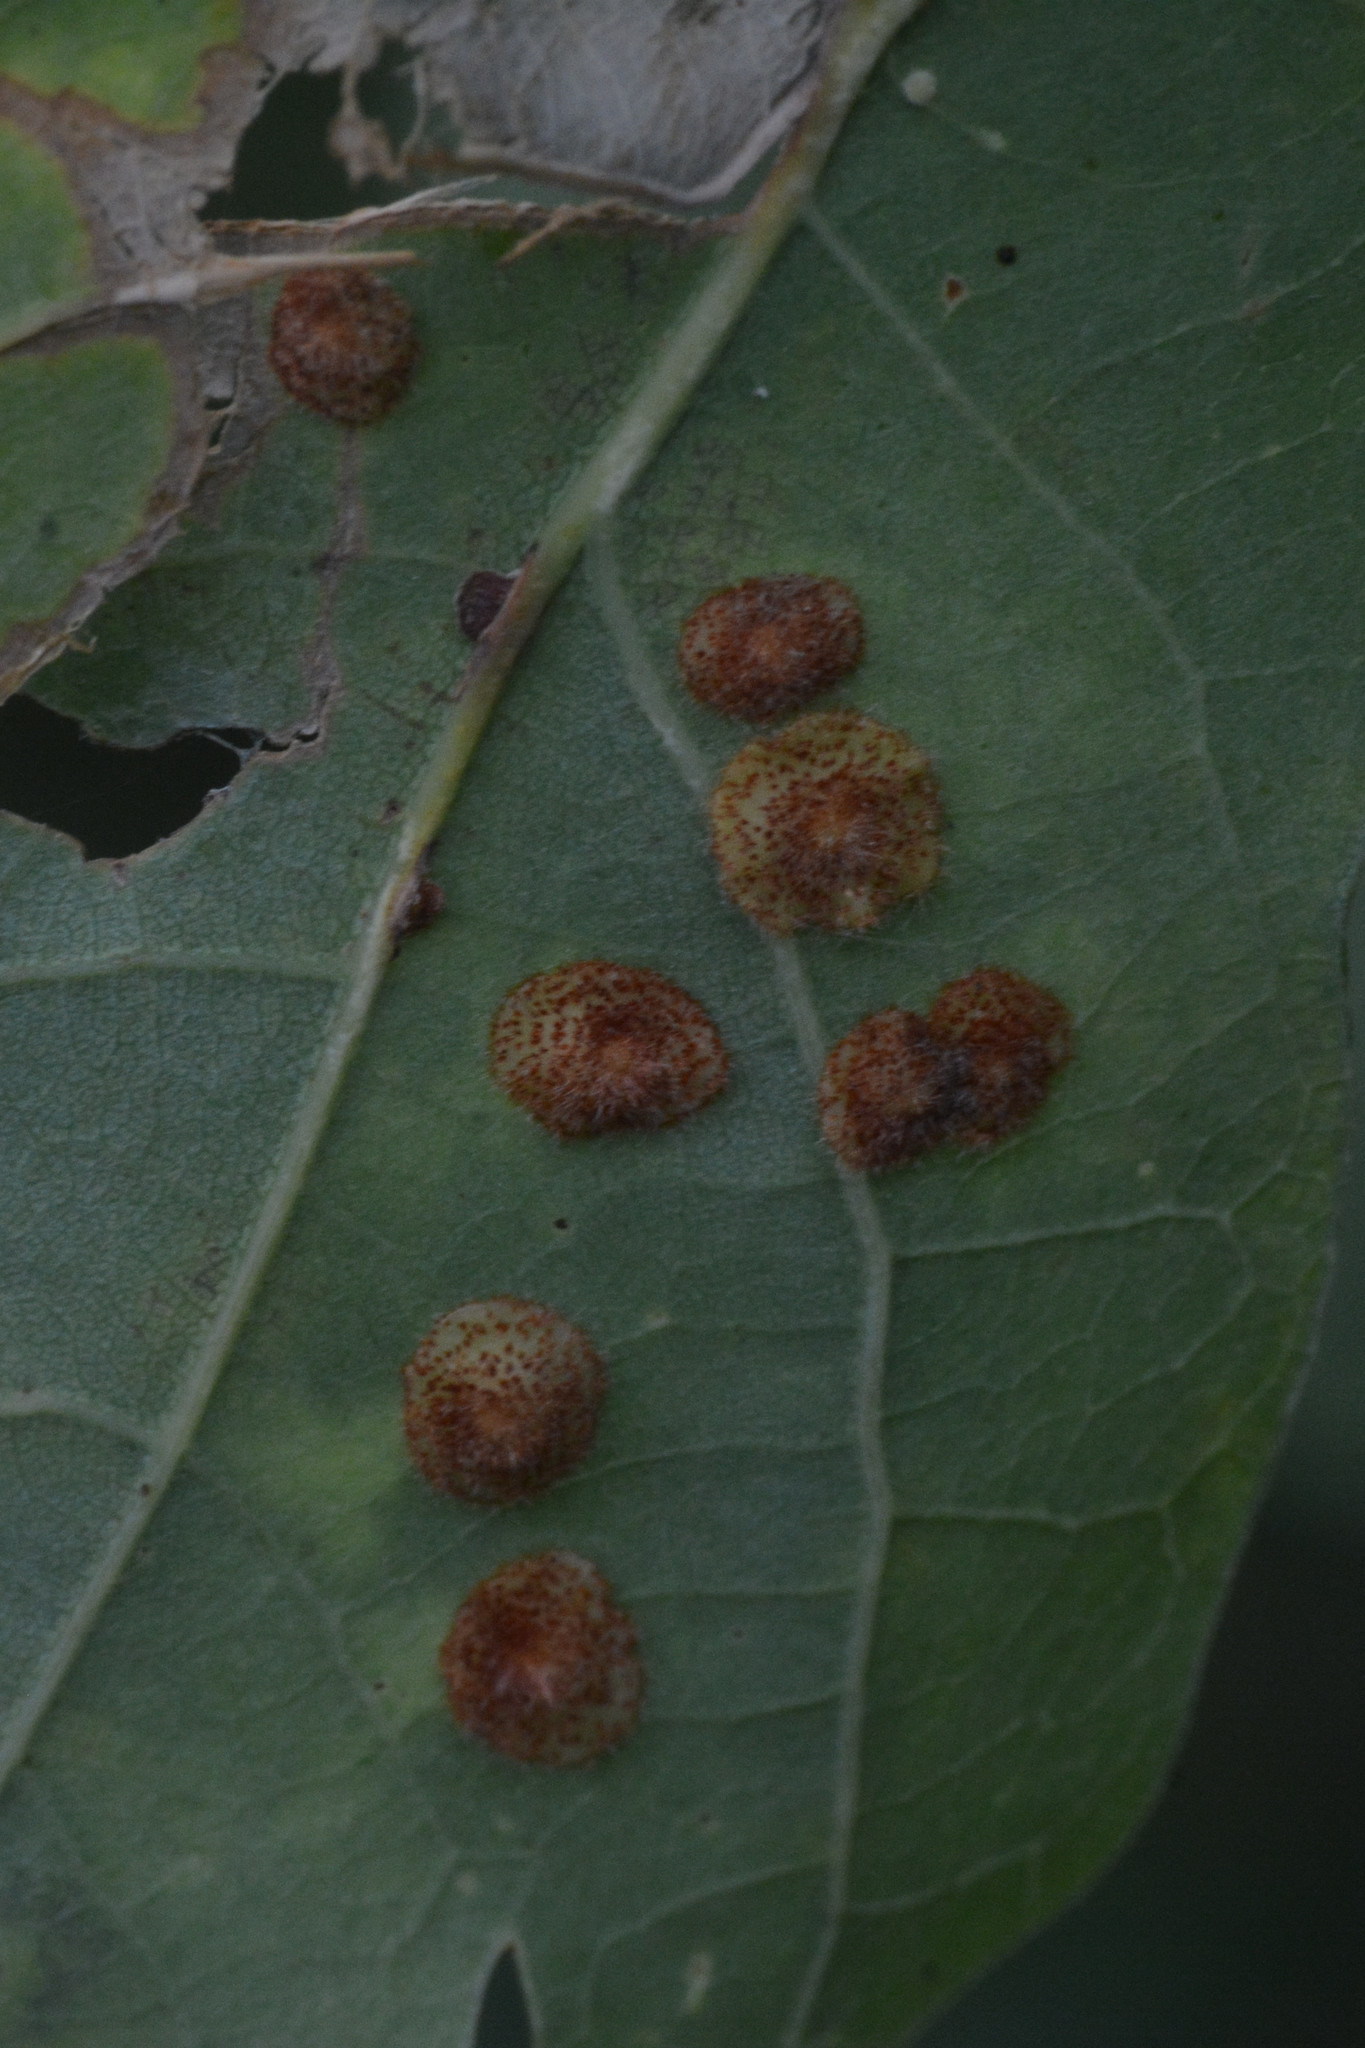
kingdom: Animalia
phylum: Arthropoda
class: Insecta
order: Hymenoptera
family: Cynipidae
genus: Neuroterus
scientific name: Neuroterus quercusbaccarum
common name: Common spangle gall
